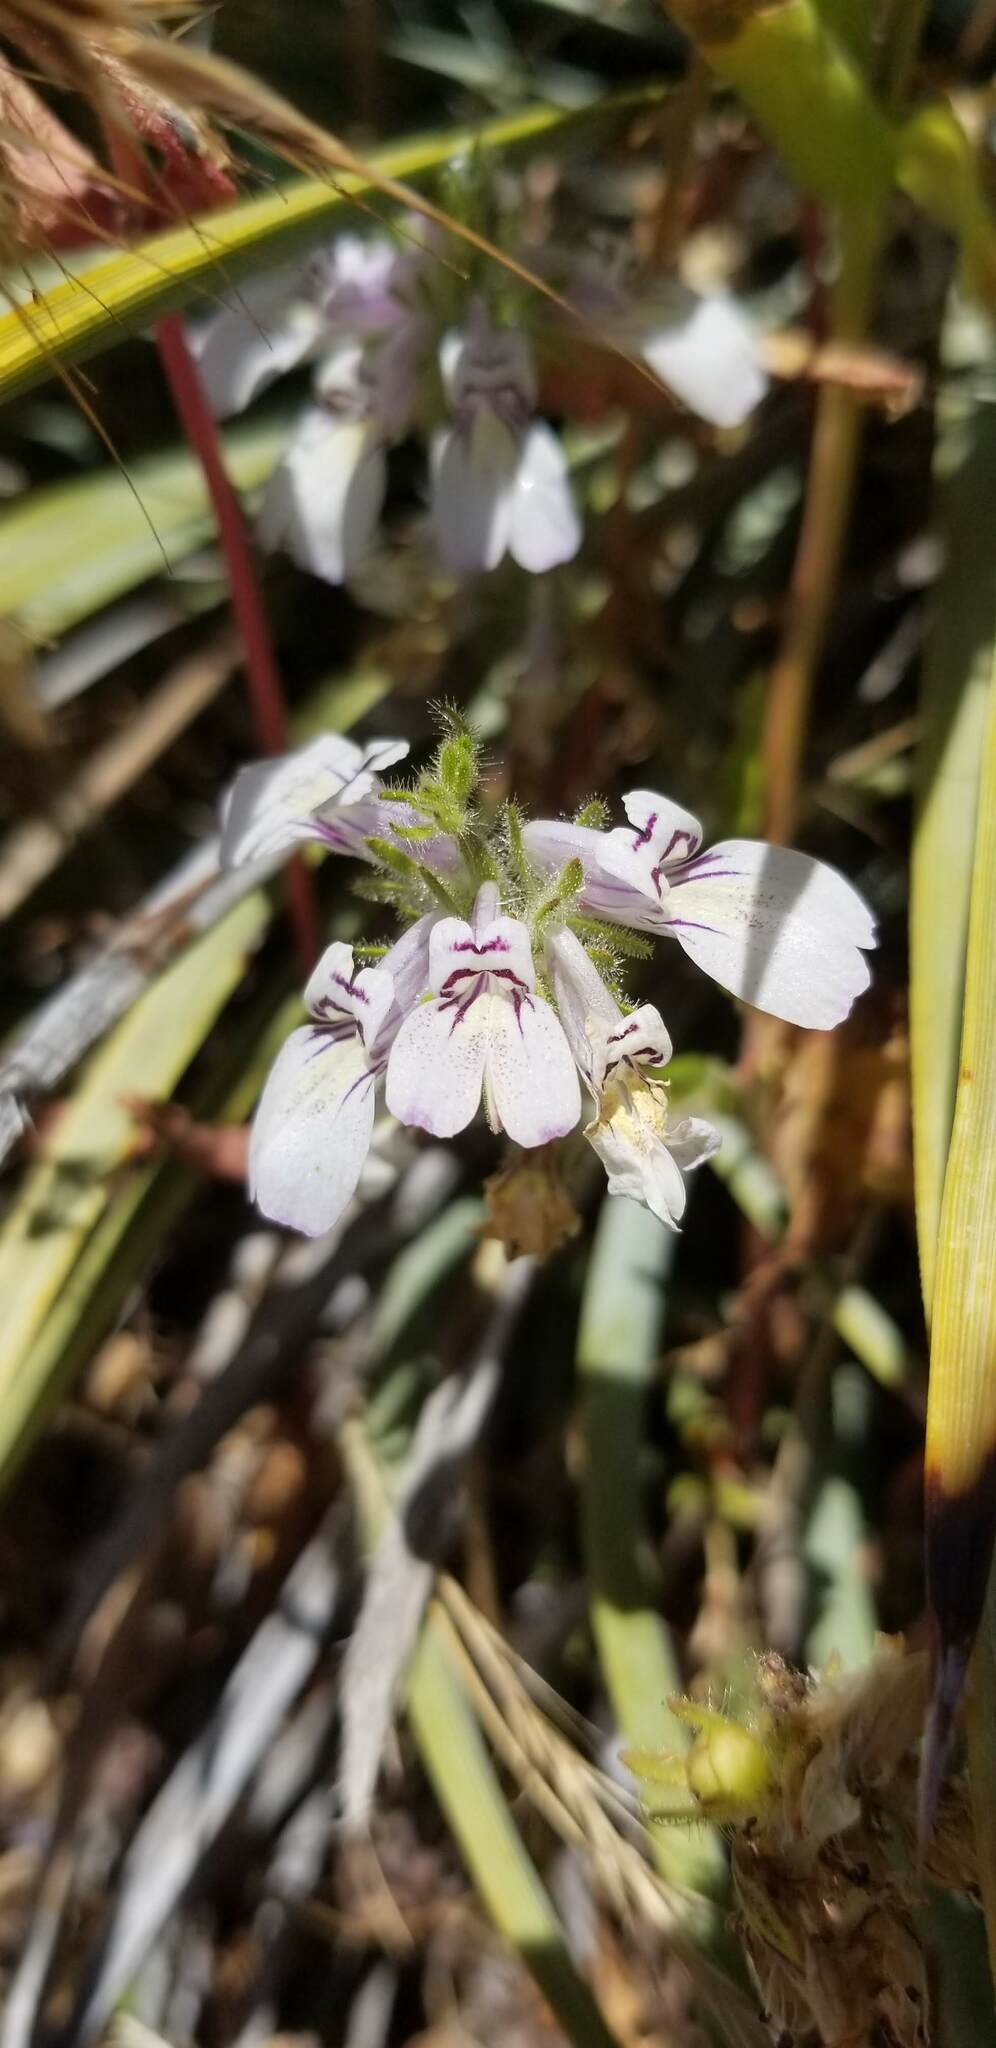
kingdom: Plantae
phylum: Tracheophyta
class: Magnoliopsida
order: Lamiales
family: Plantaginaceae
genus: Collinsia
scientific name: Collinsia tinctoria
